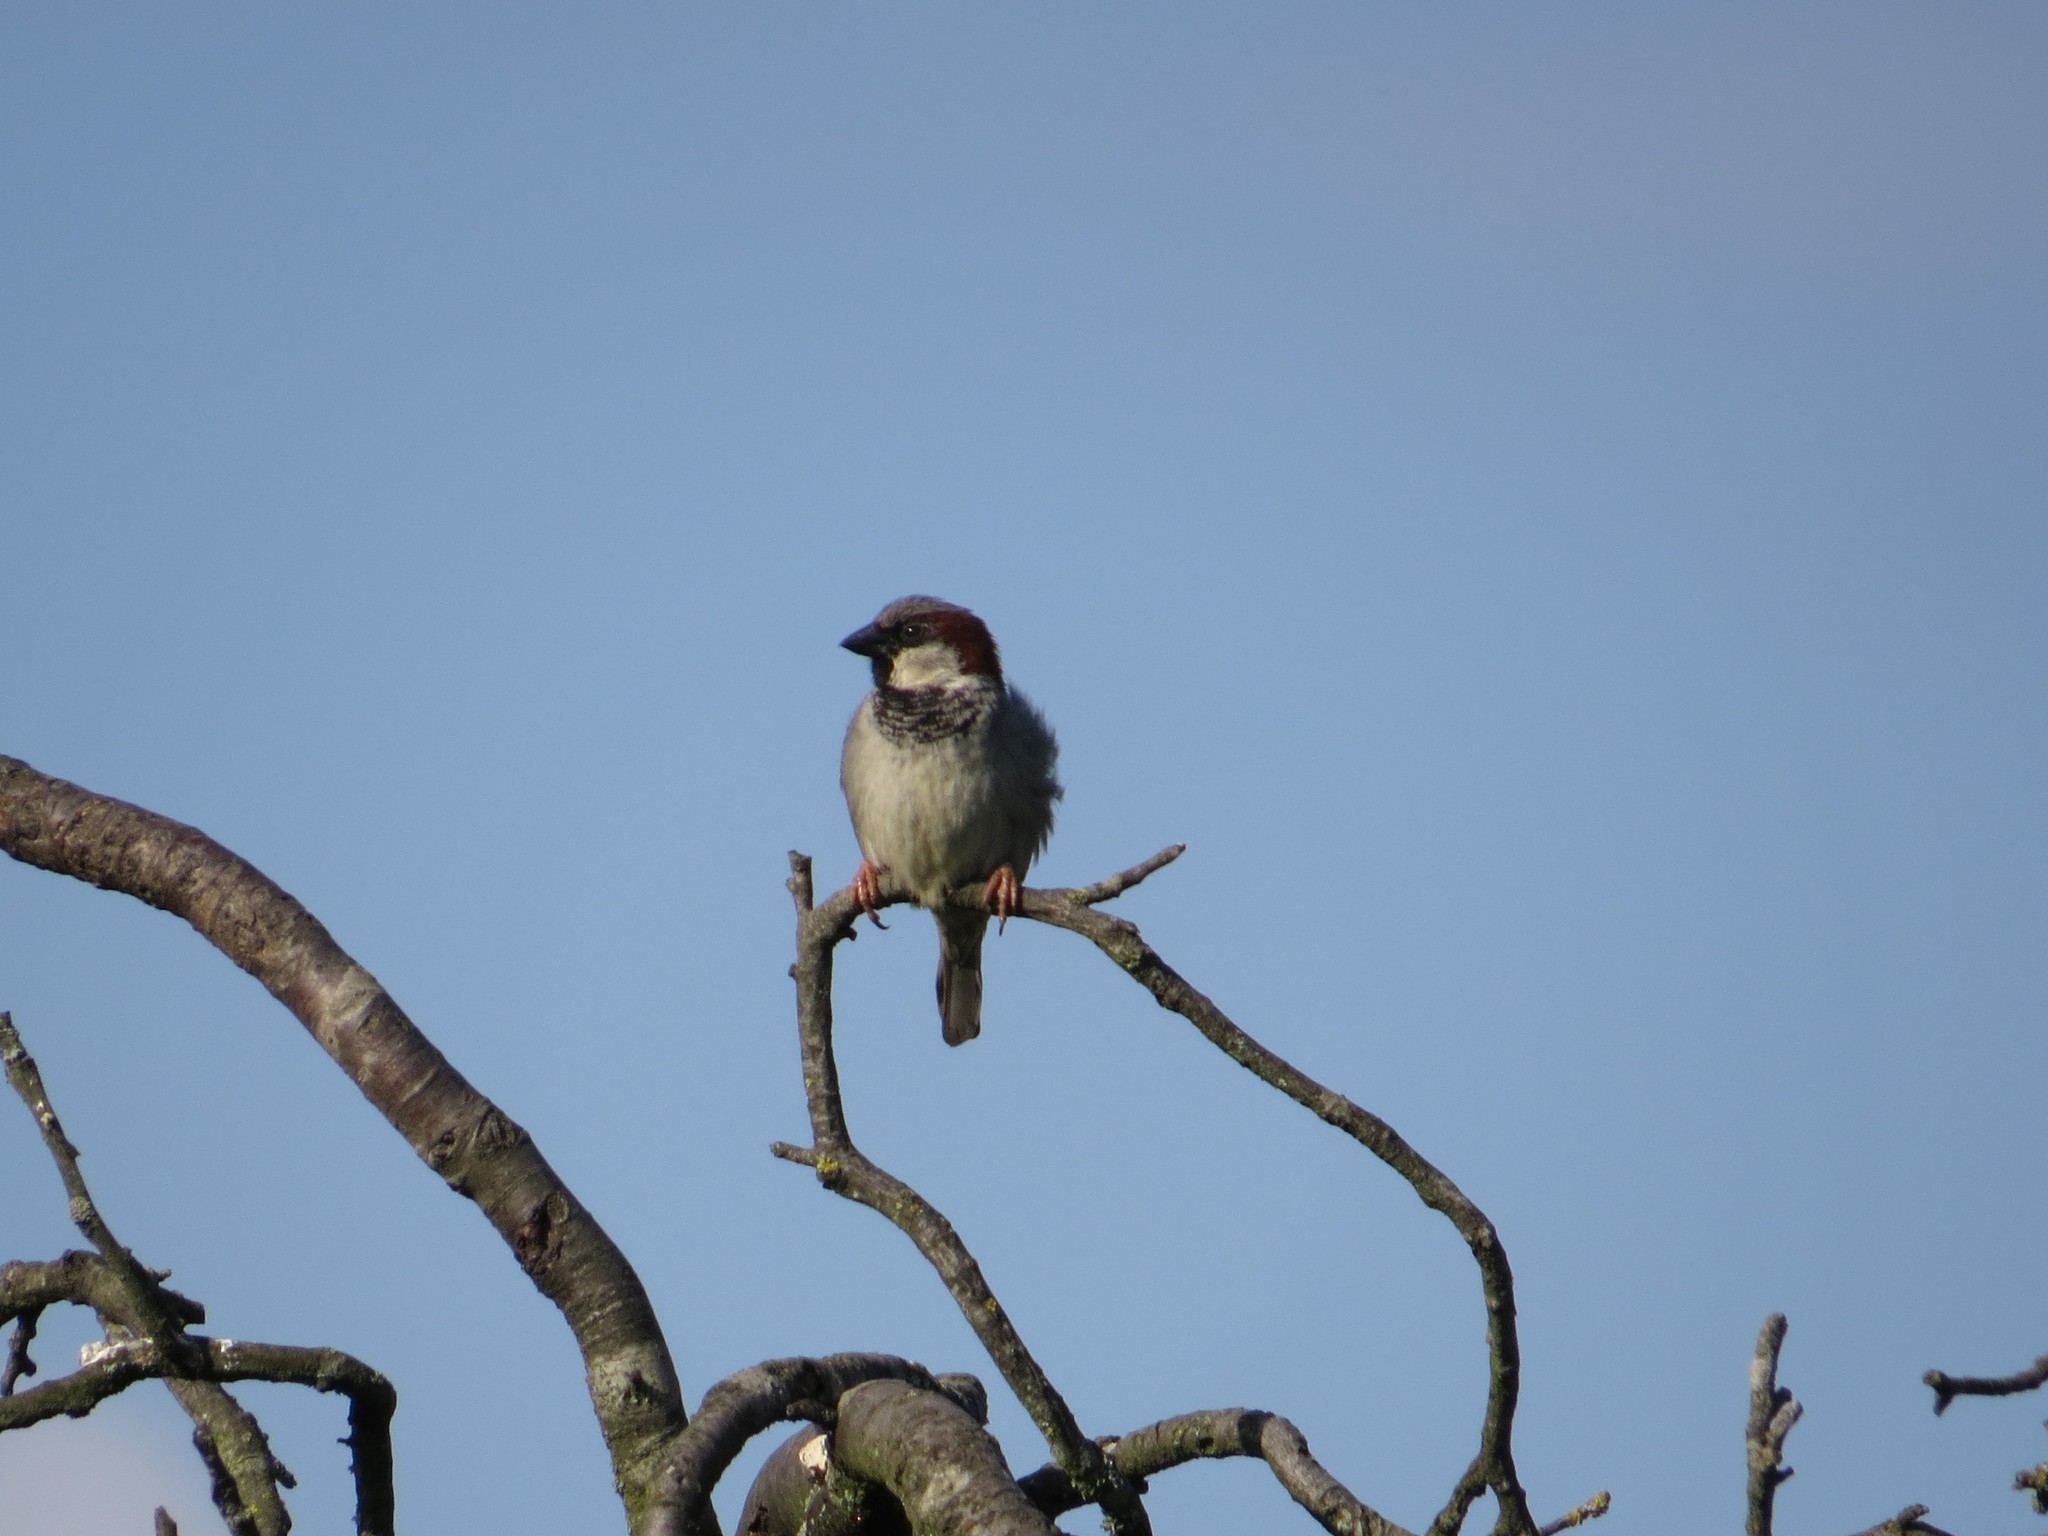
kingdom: Animalia
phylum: Chordata
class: Aves
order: Passeriformes
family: Passeridae
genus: Passer
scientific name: Passer domesticus
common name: House sparrow
